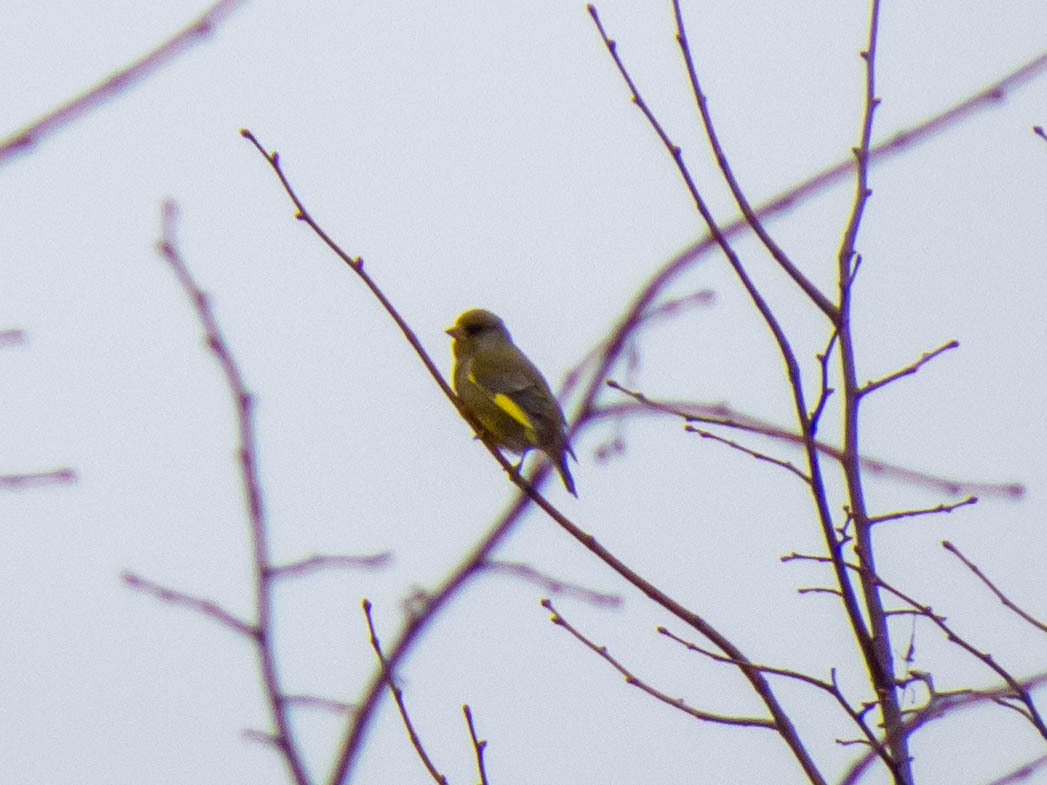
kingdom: Plantae
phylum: Tracheophyta
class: Liliopsida
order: Poales
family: Poaceae
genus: Chloris
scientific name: Chloris chloris
